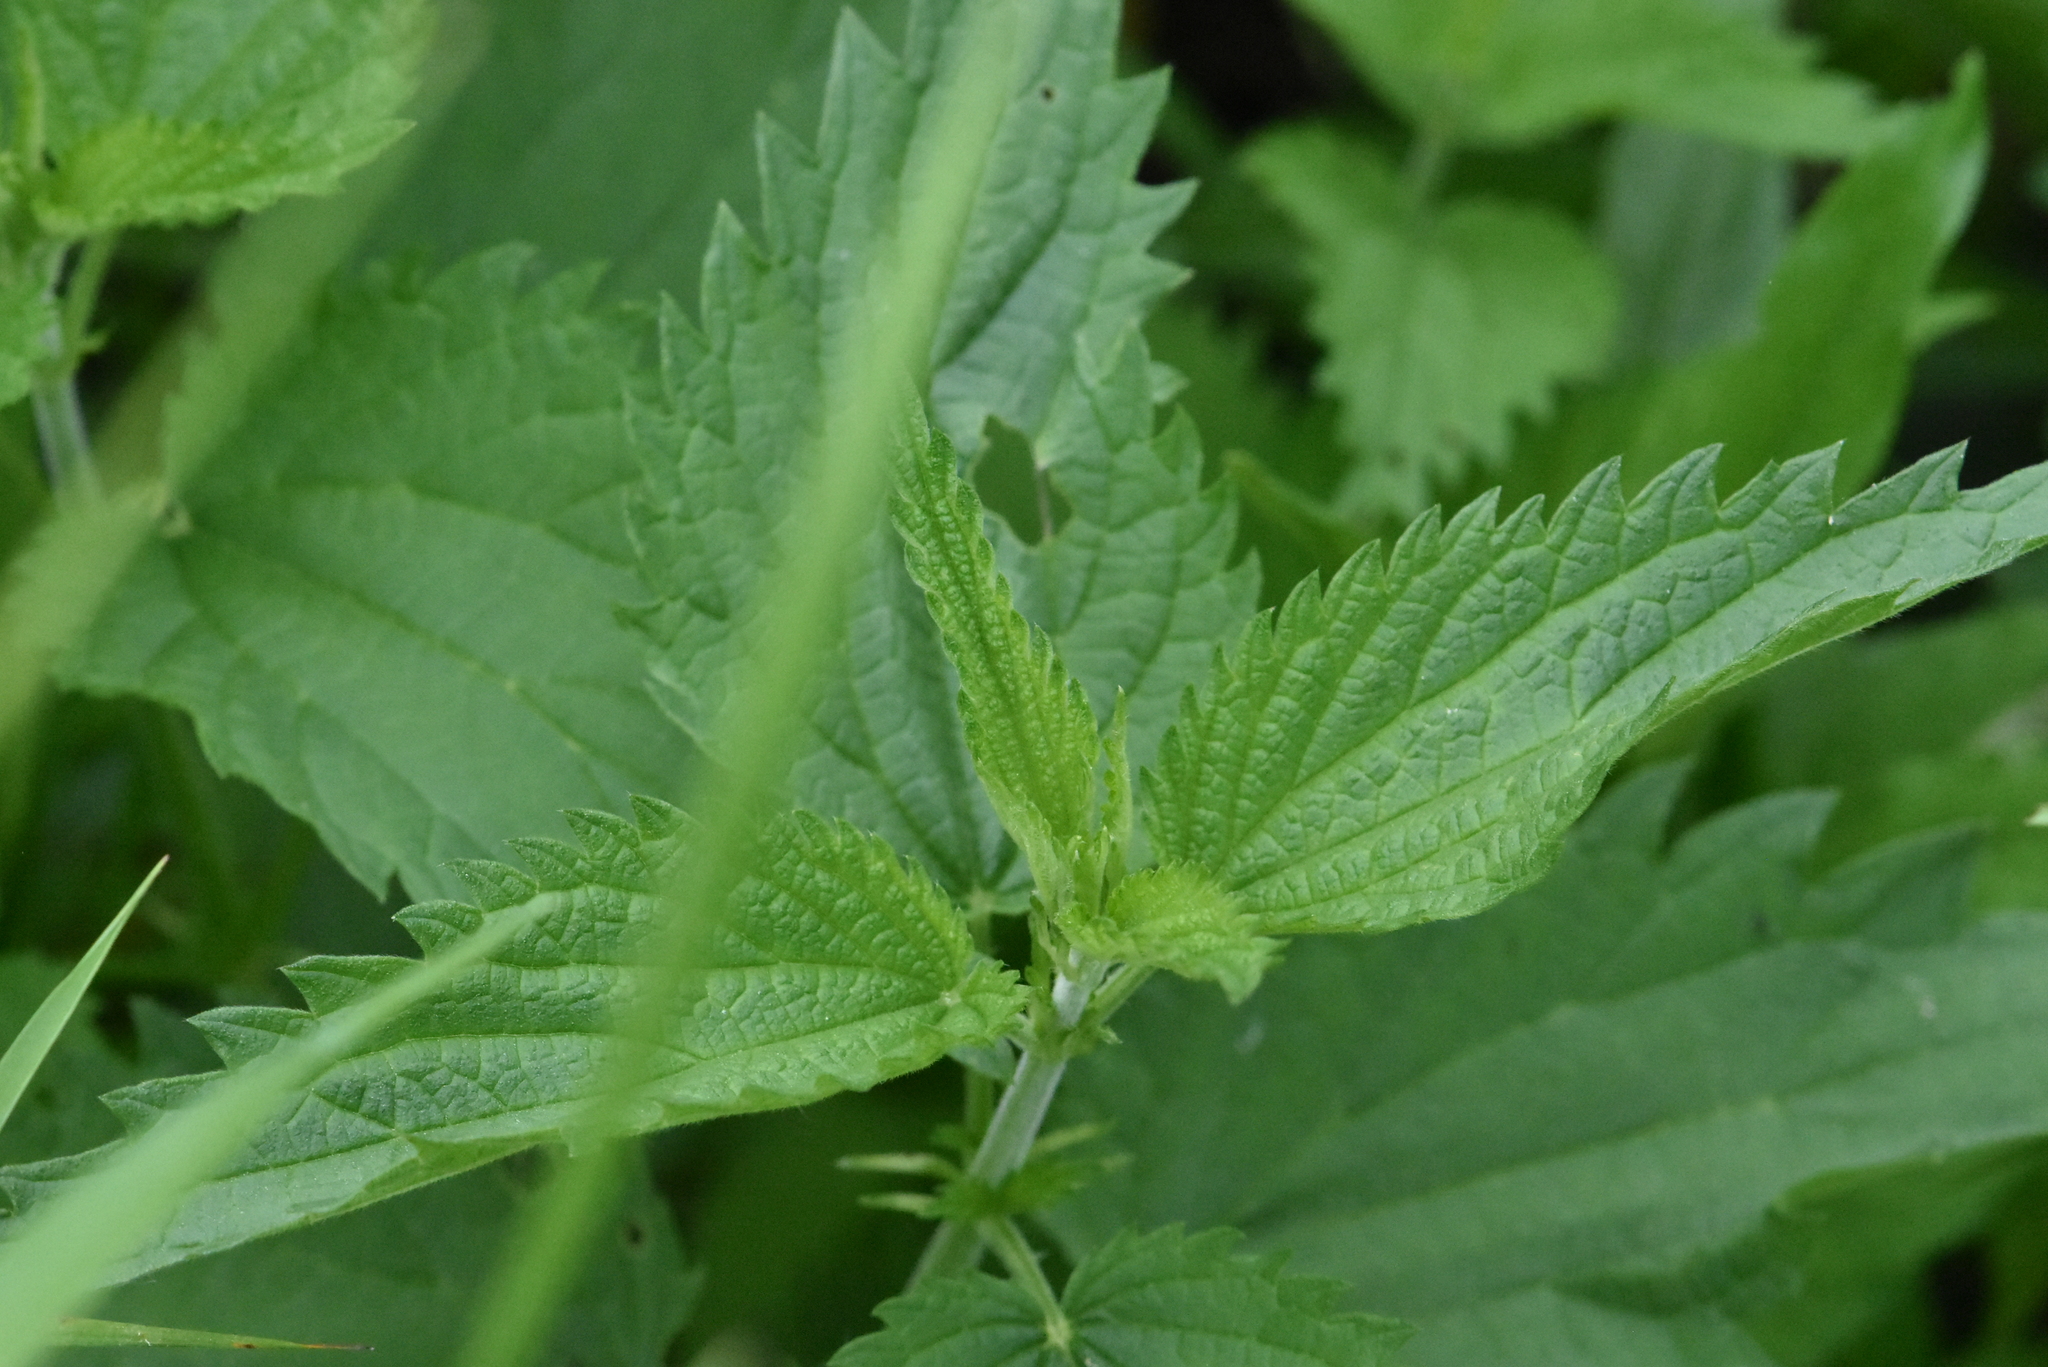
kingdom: Plantae
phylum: Tracheophyta
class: Magnoliopsida
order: Rosales
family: Urticaceae
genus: Urtica
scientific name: Urtica galeopsifolia
